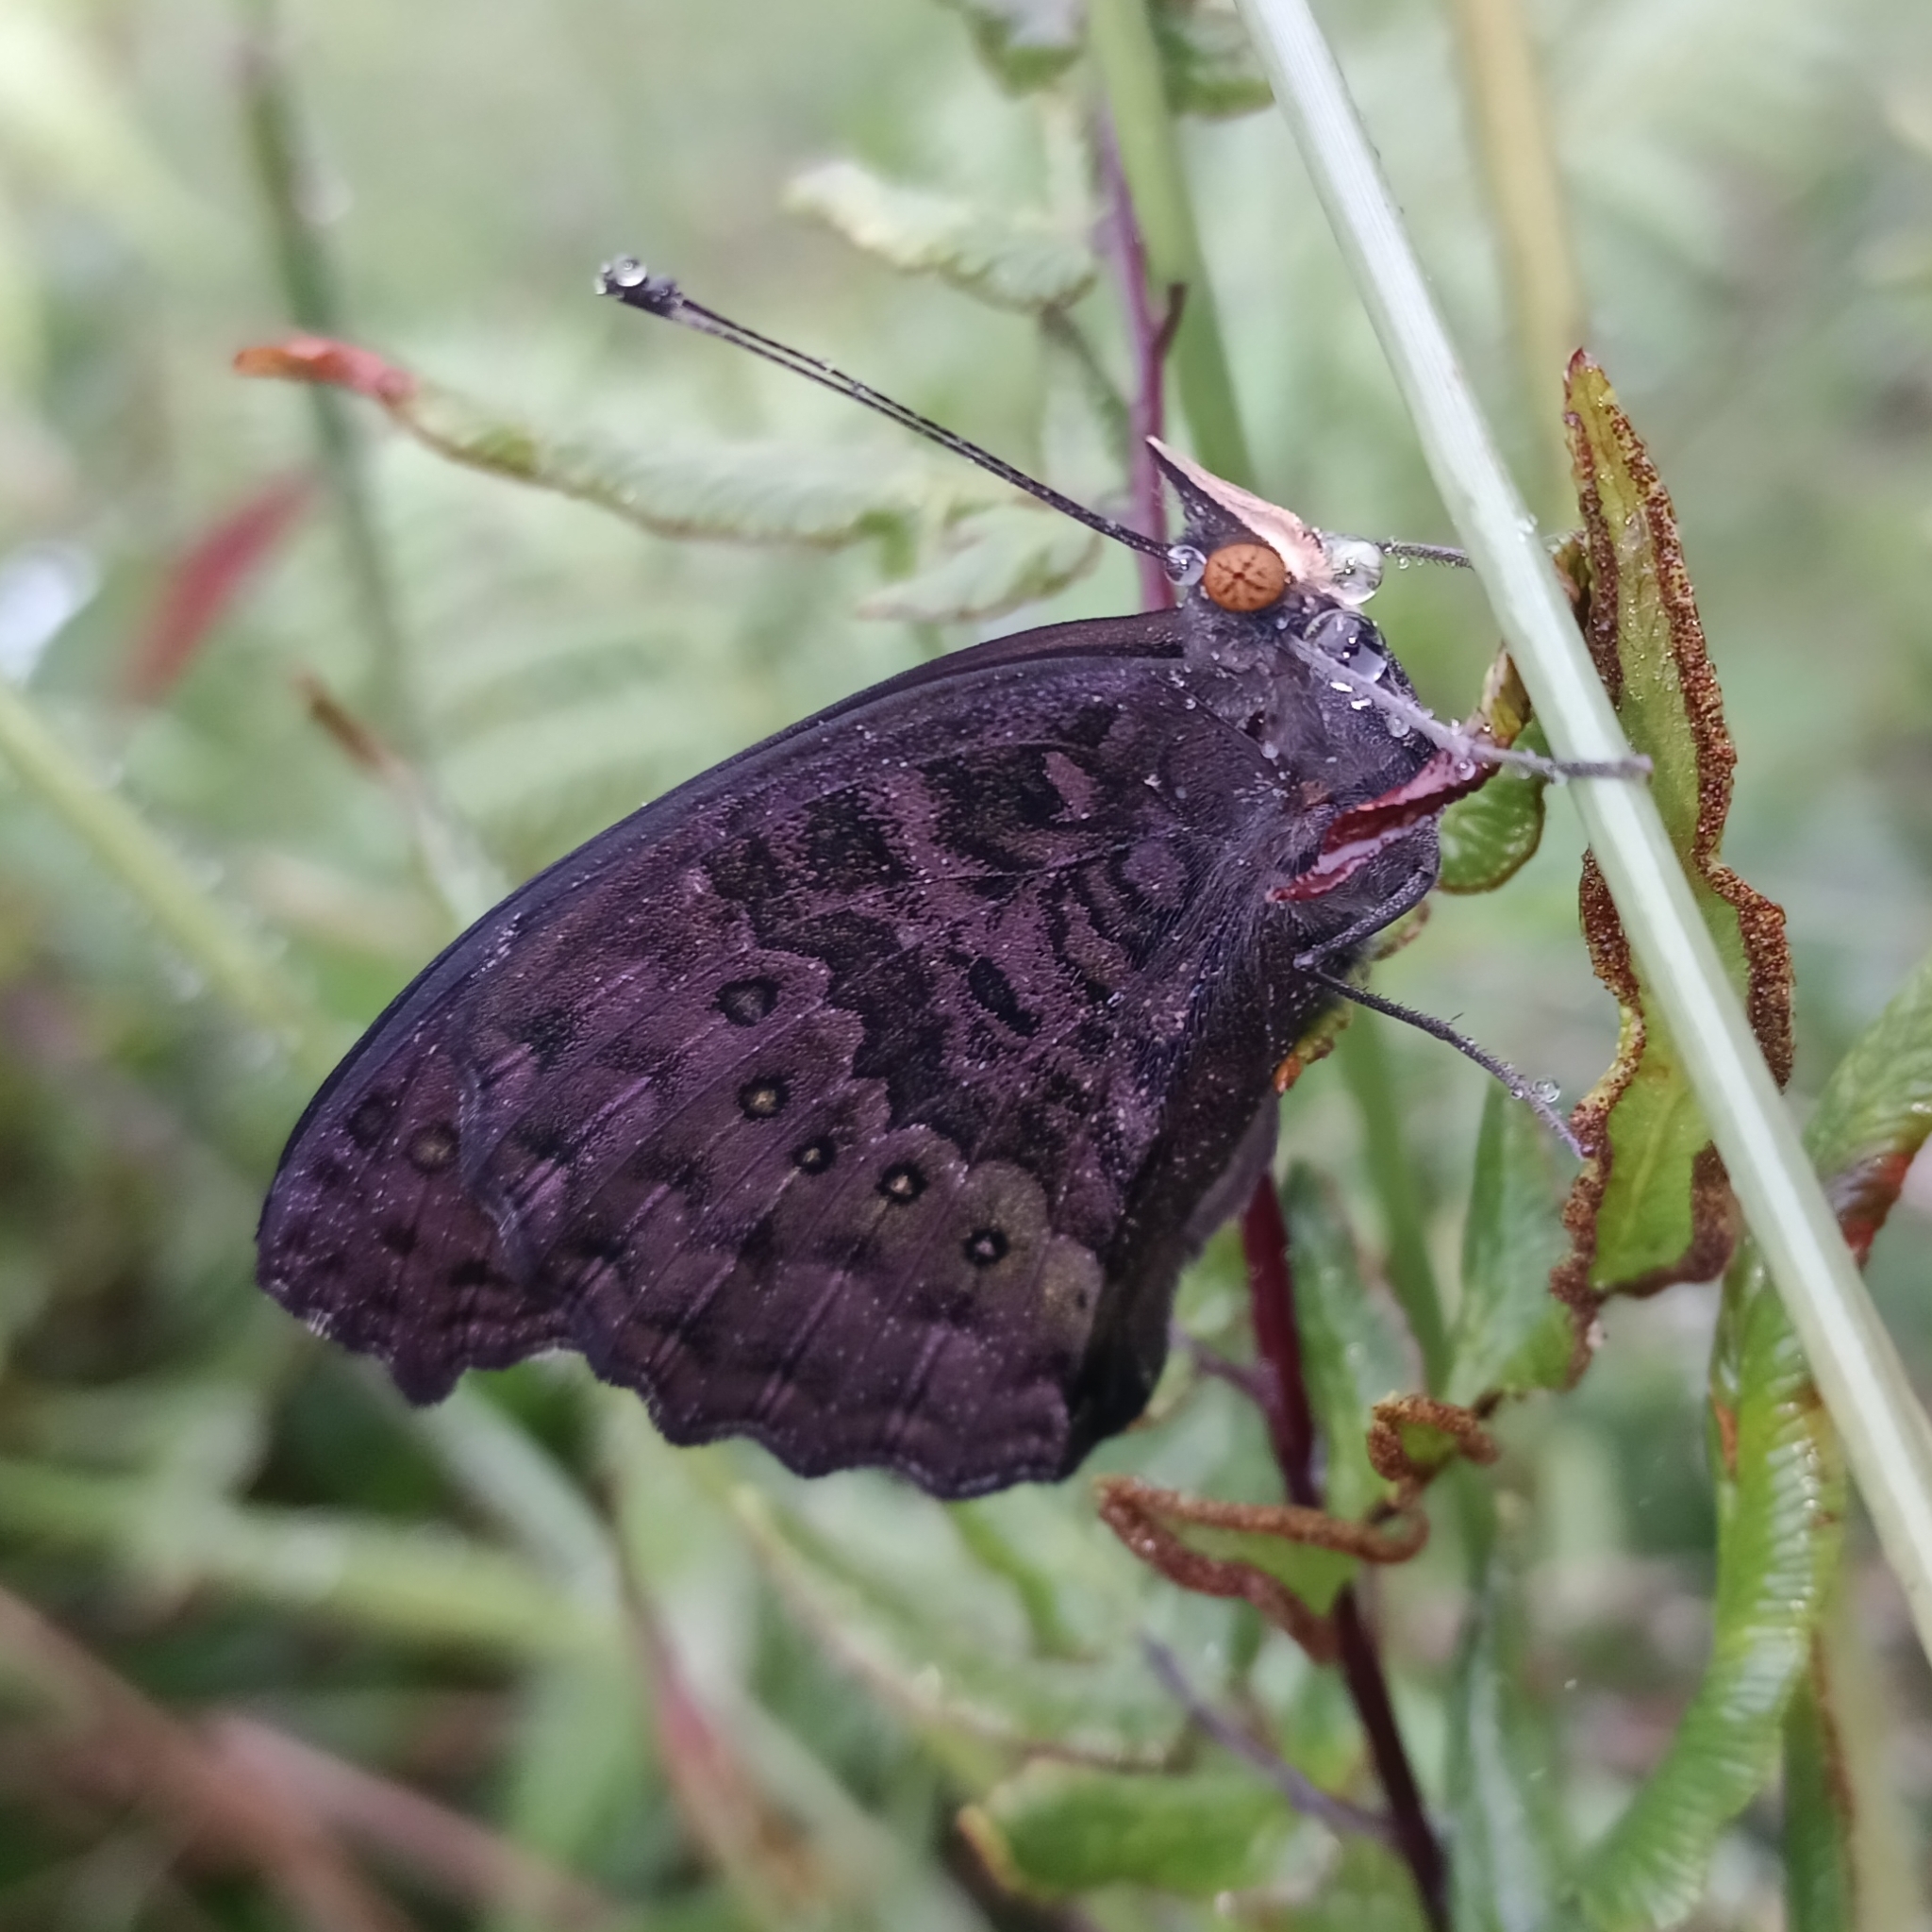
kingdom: Animalia
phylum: Arthropoda
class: Insecta
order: Lepidoptera
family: Nymphalidae
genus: Precis
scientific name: Precis octavia
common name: Gaudy commodore
